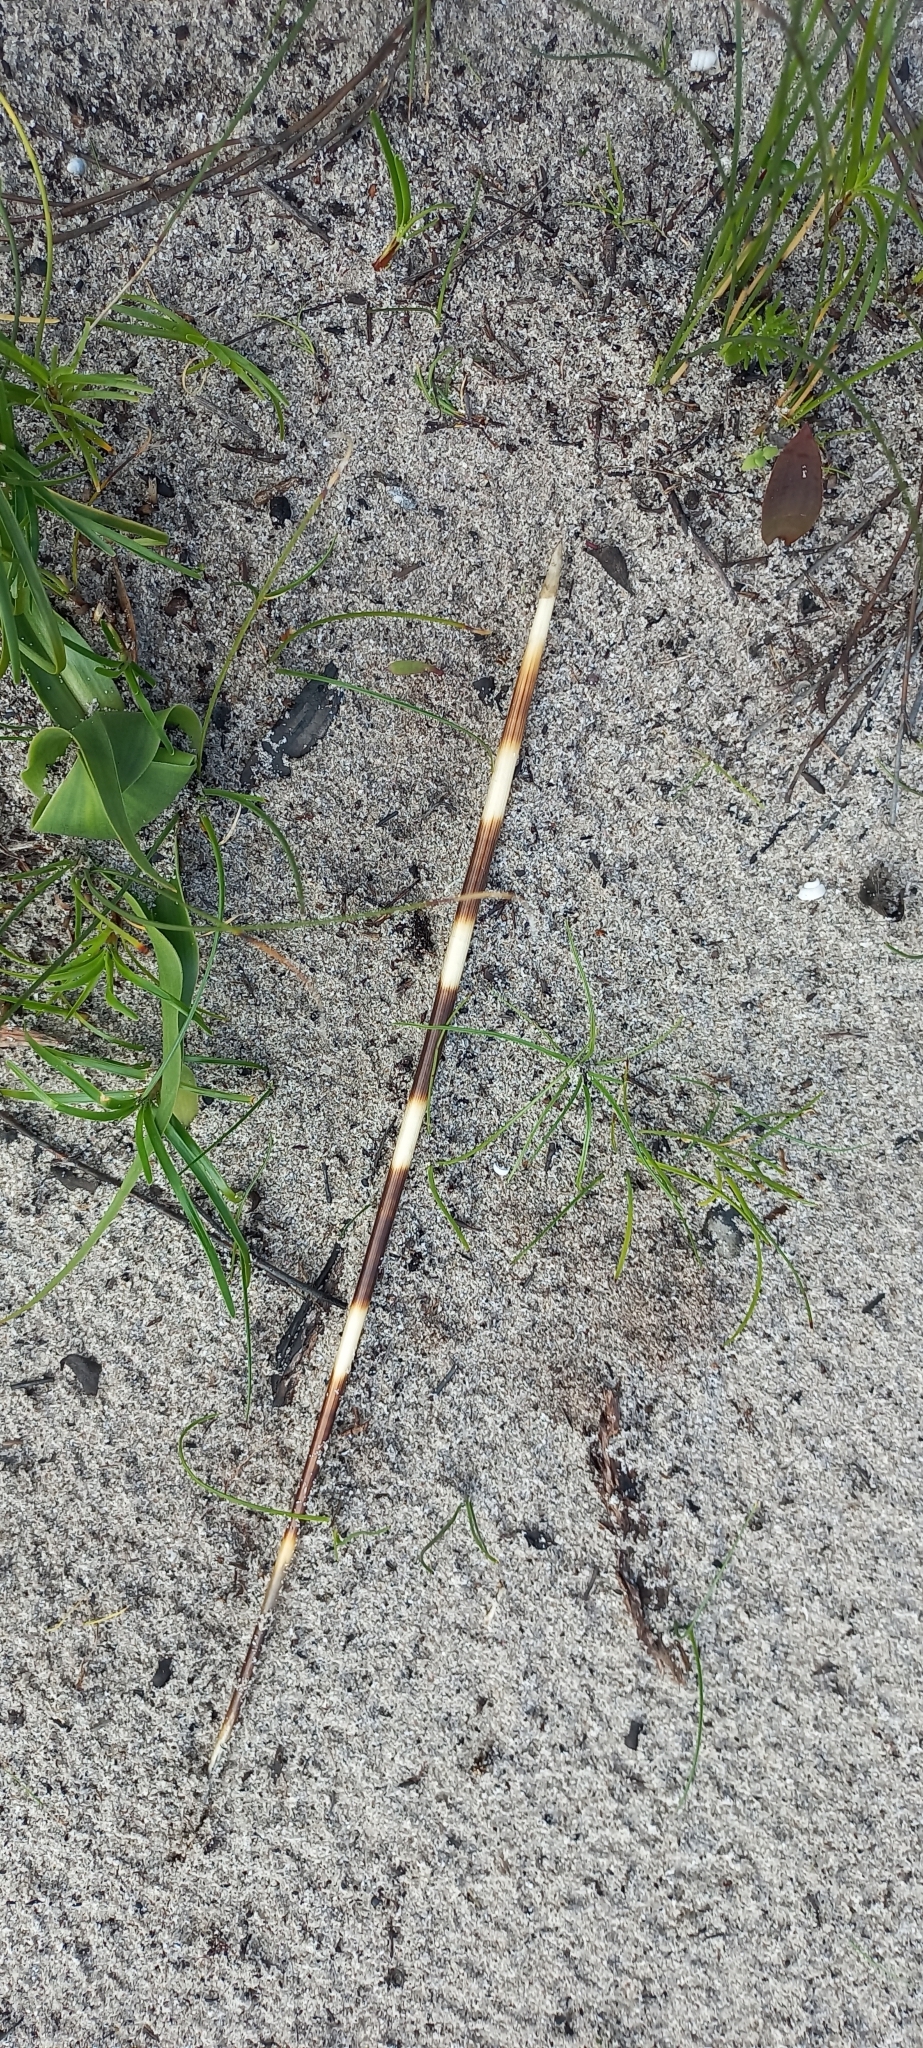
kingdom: Animalia
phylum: Chordata
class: Mammalia
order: Rodentia
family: Hystricidae
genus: Hystrix
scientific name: Hystrix africaeaustralis
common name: Cape porcupine
